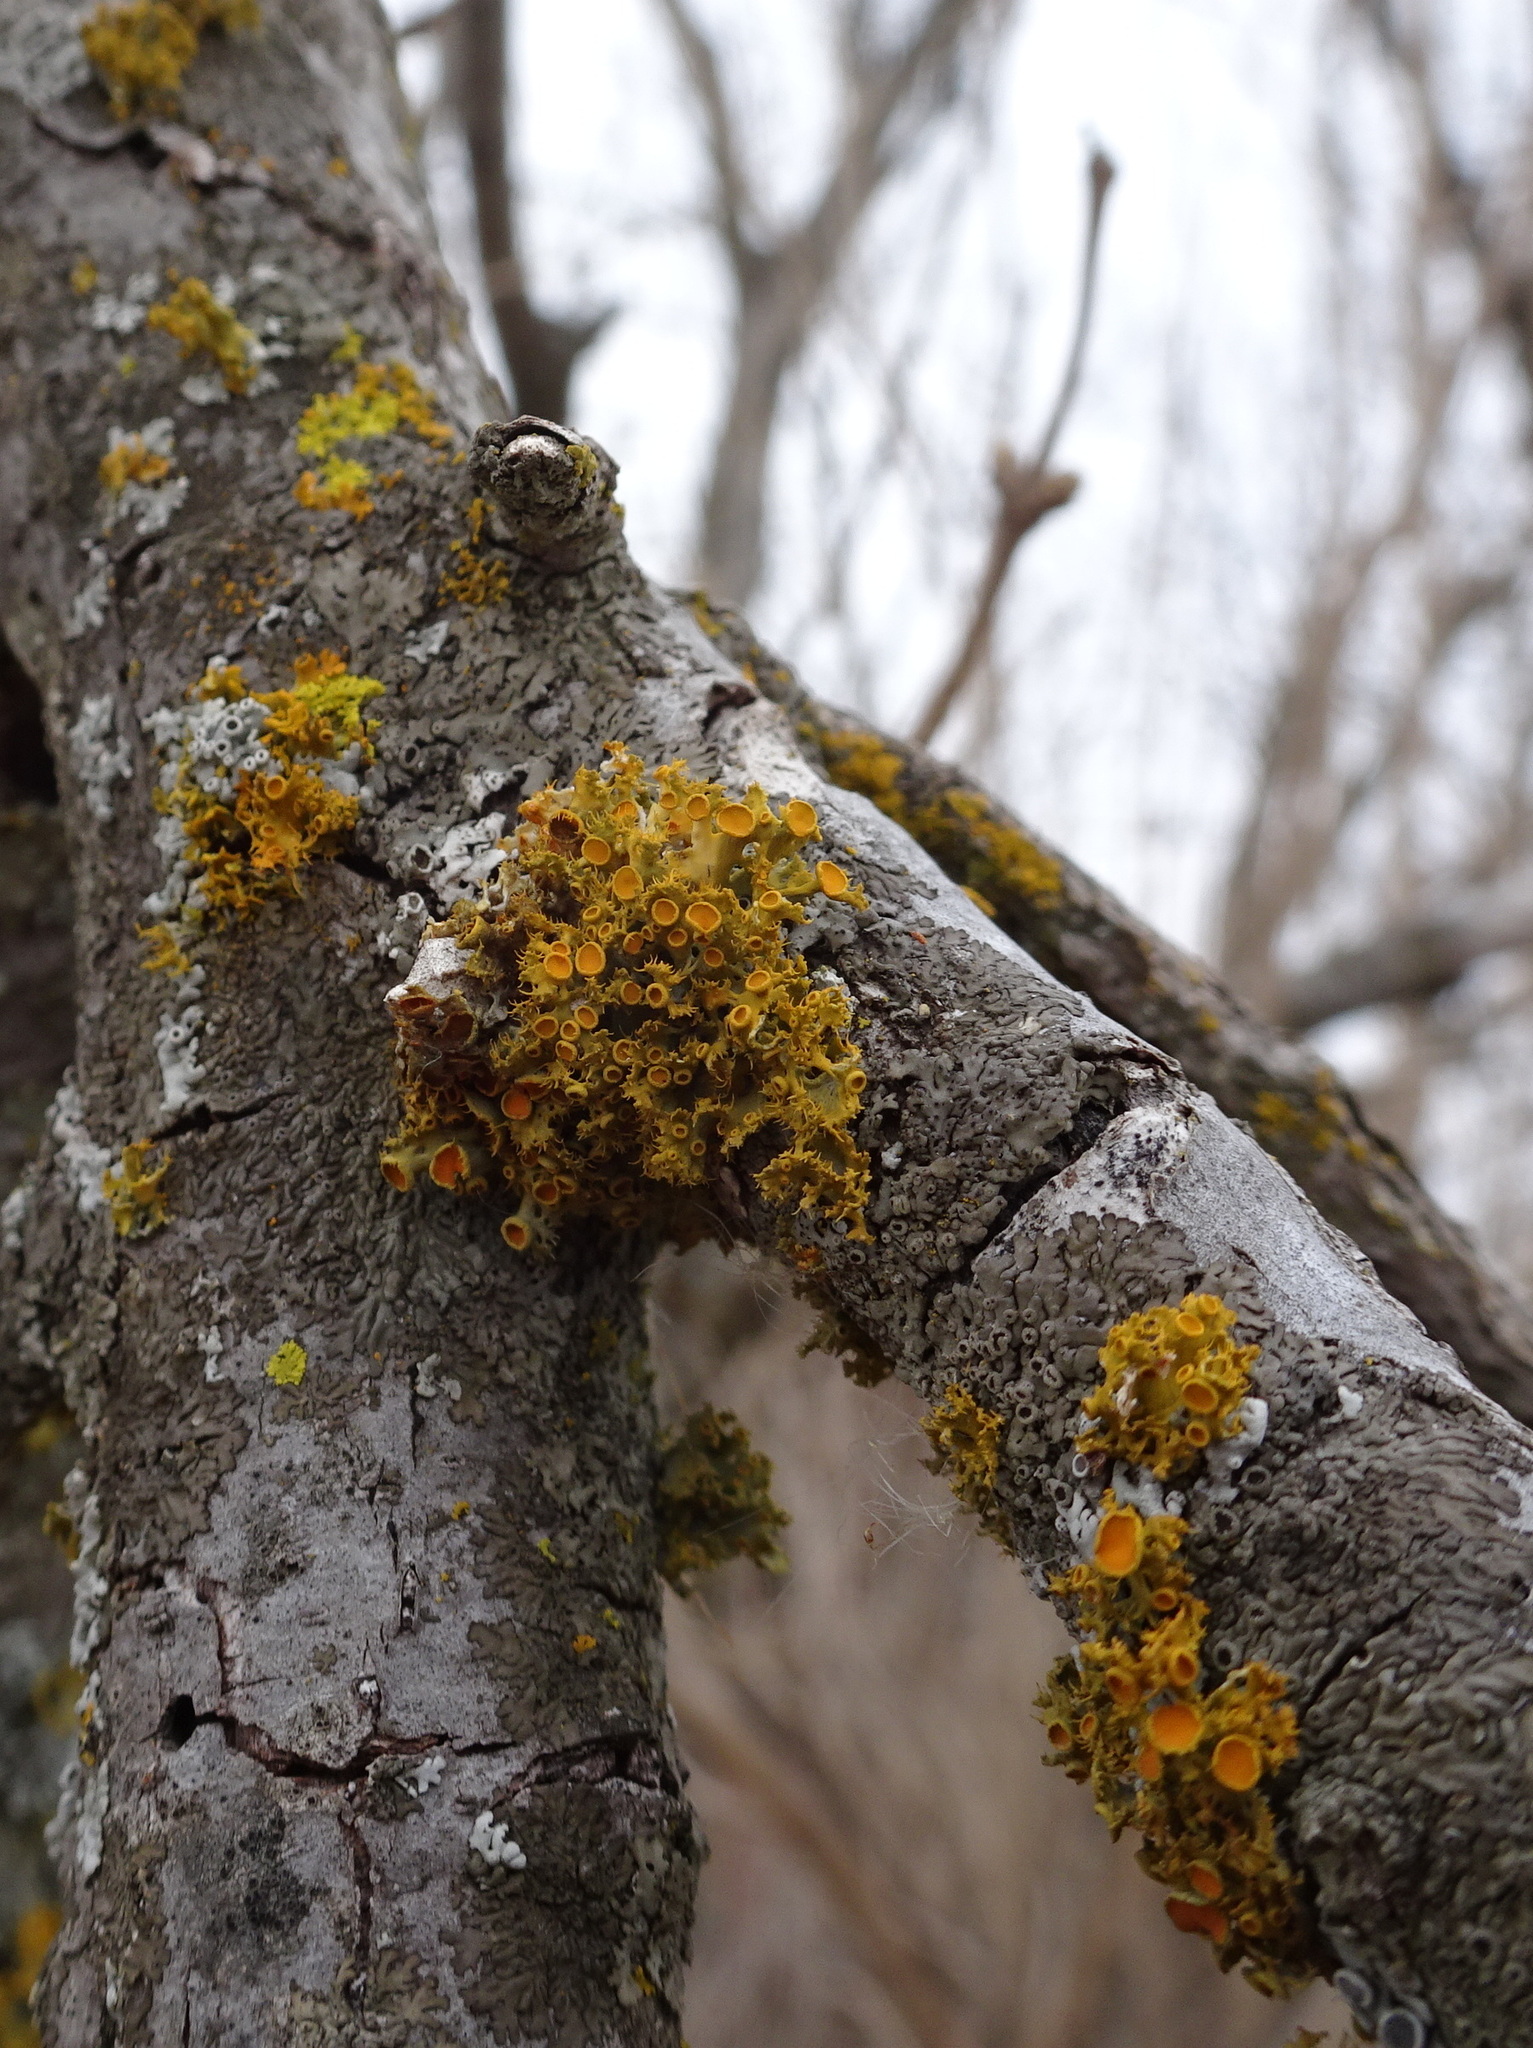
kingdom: Fungi
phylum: Ascomycota
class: Lecanoromycetes
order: Teloschistales
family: Teloschistaceae
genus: Niorma
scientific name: Niorma chrysophthalma
